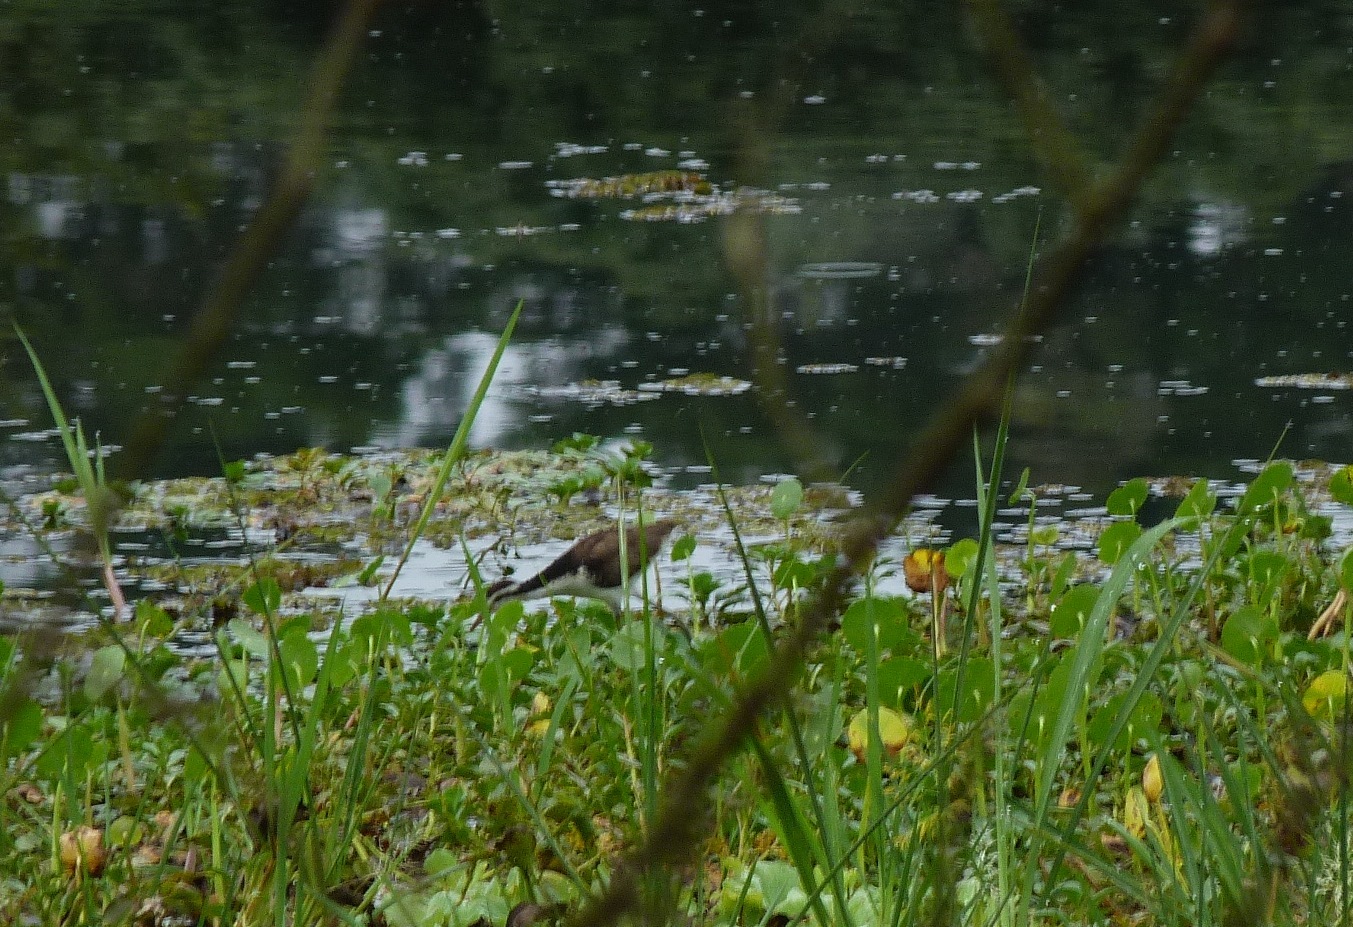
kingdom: Animalia
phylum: Chordata
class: Aves
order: Charadriiformes
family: Jacanidae
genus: Jacana
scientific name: Jacana jacana
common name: Wattled jacana
